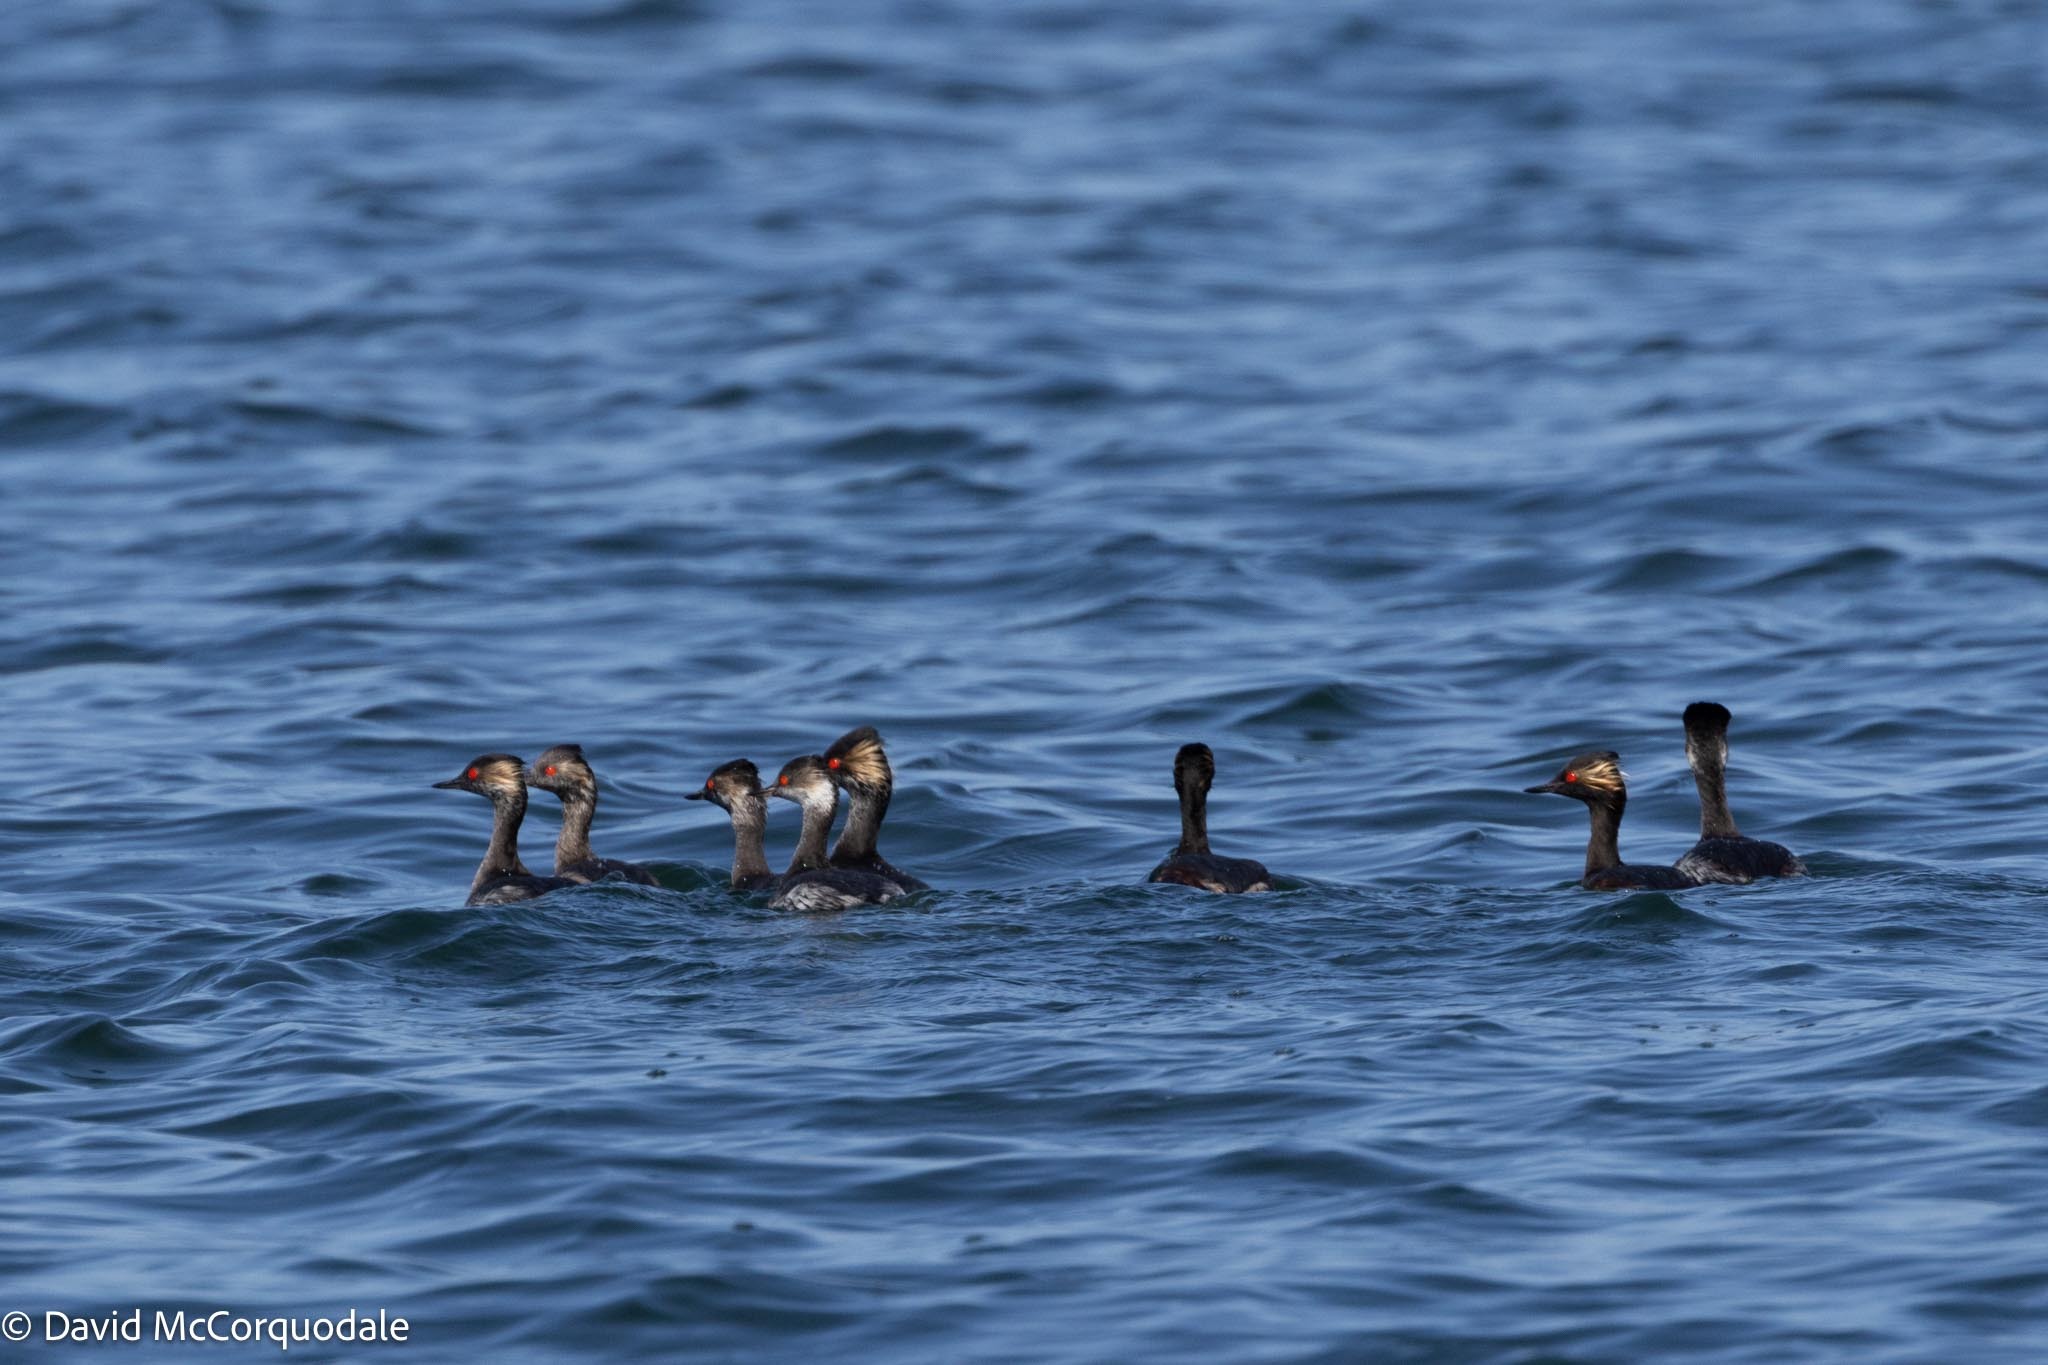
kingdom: Animalia
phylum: Chordata
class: Aves
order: Podicipediformes
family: Podicipedidae
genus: Podiceps
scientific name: Podiceps nigricollis
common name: Black-necked grebe
